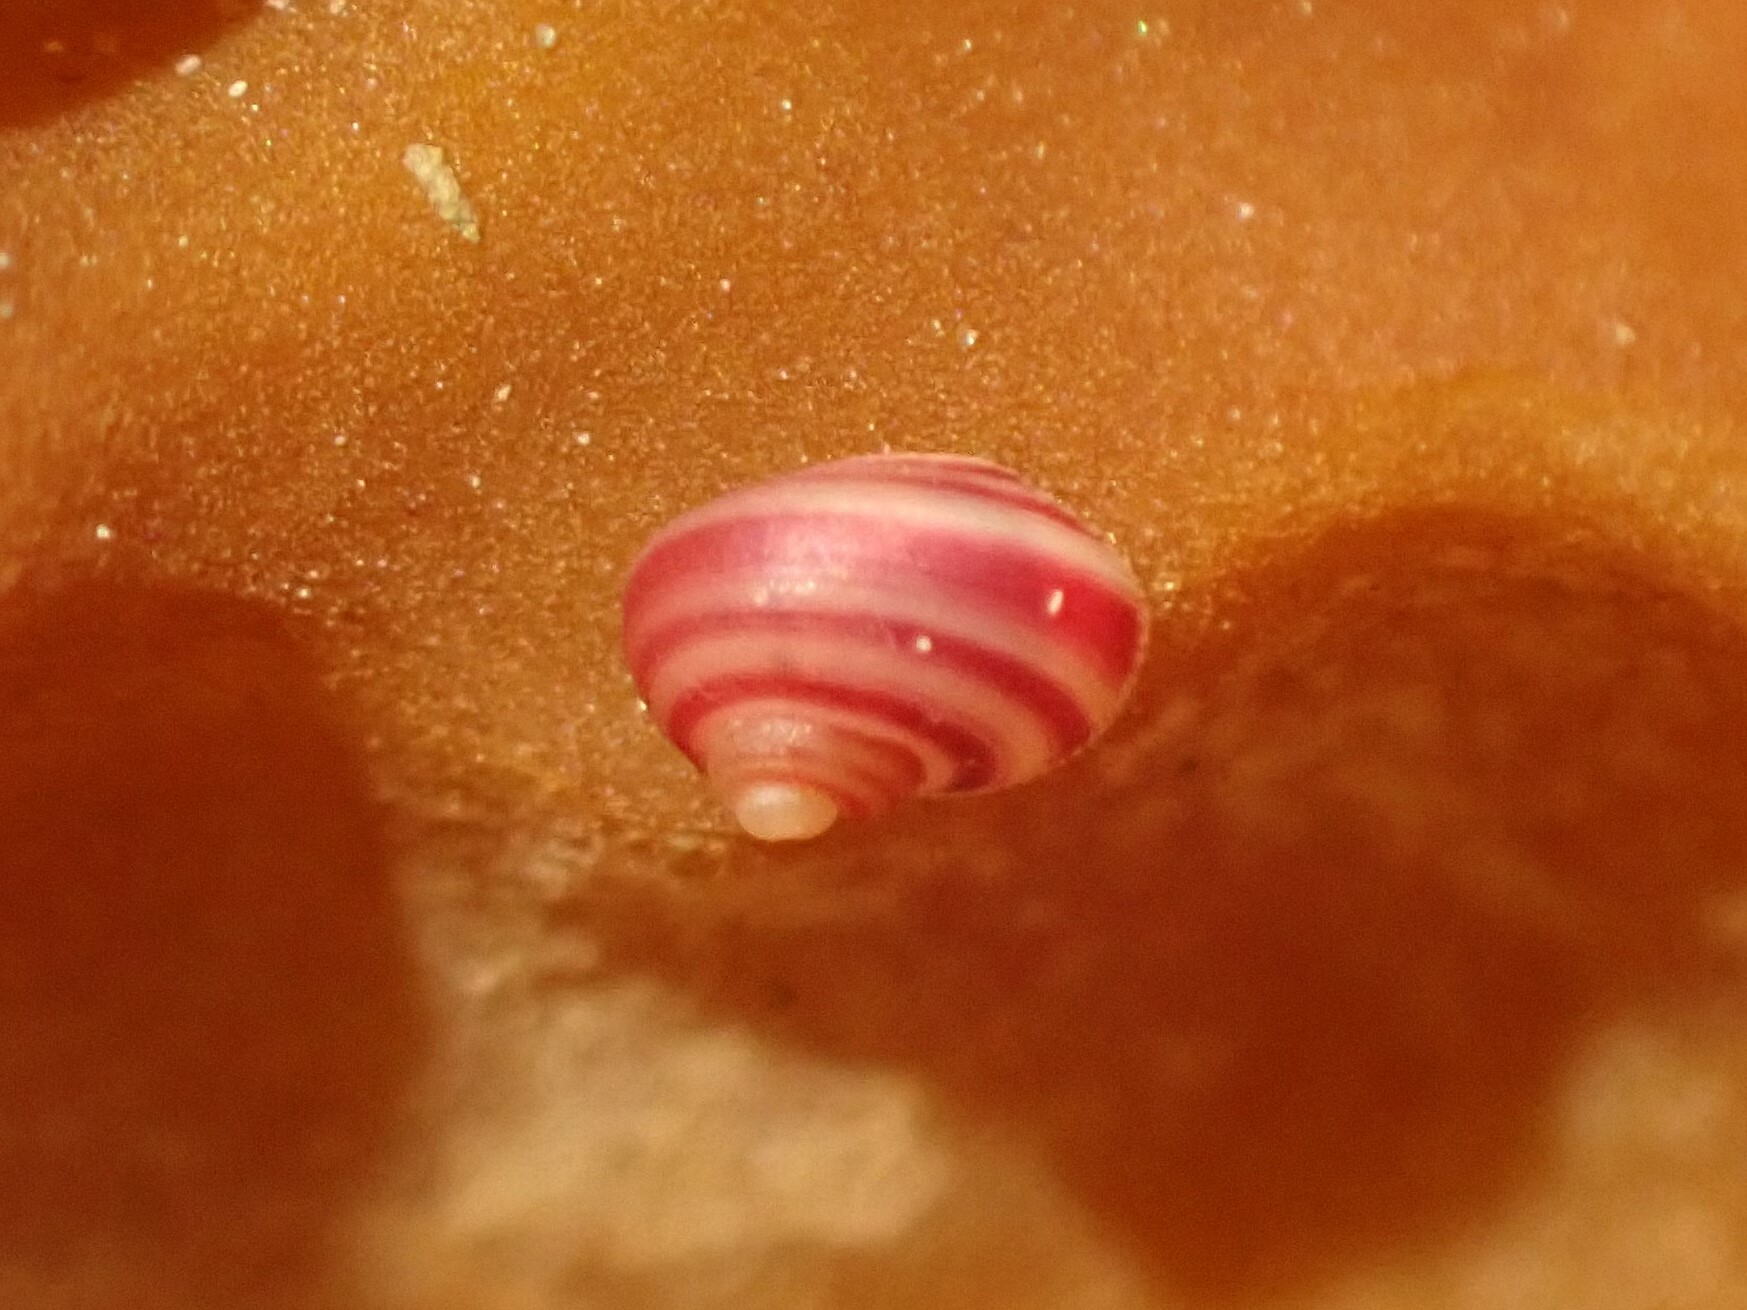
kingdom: Animalia
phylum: Mollusca
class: Gastropoda
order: Trochida
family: Trochidae
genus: Cantharidus
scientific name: Cantharidus antipodum
